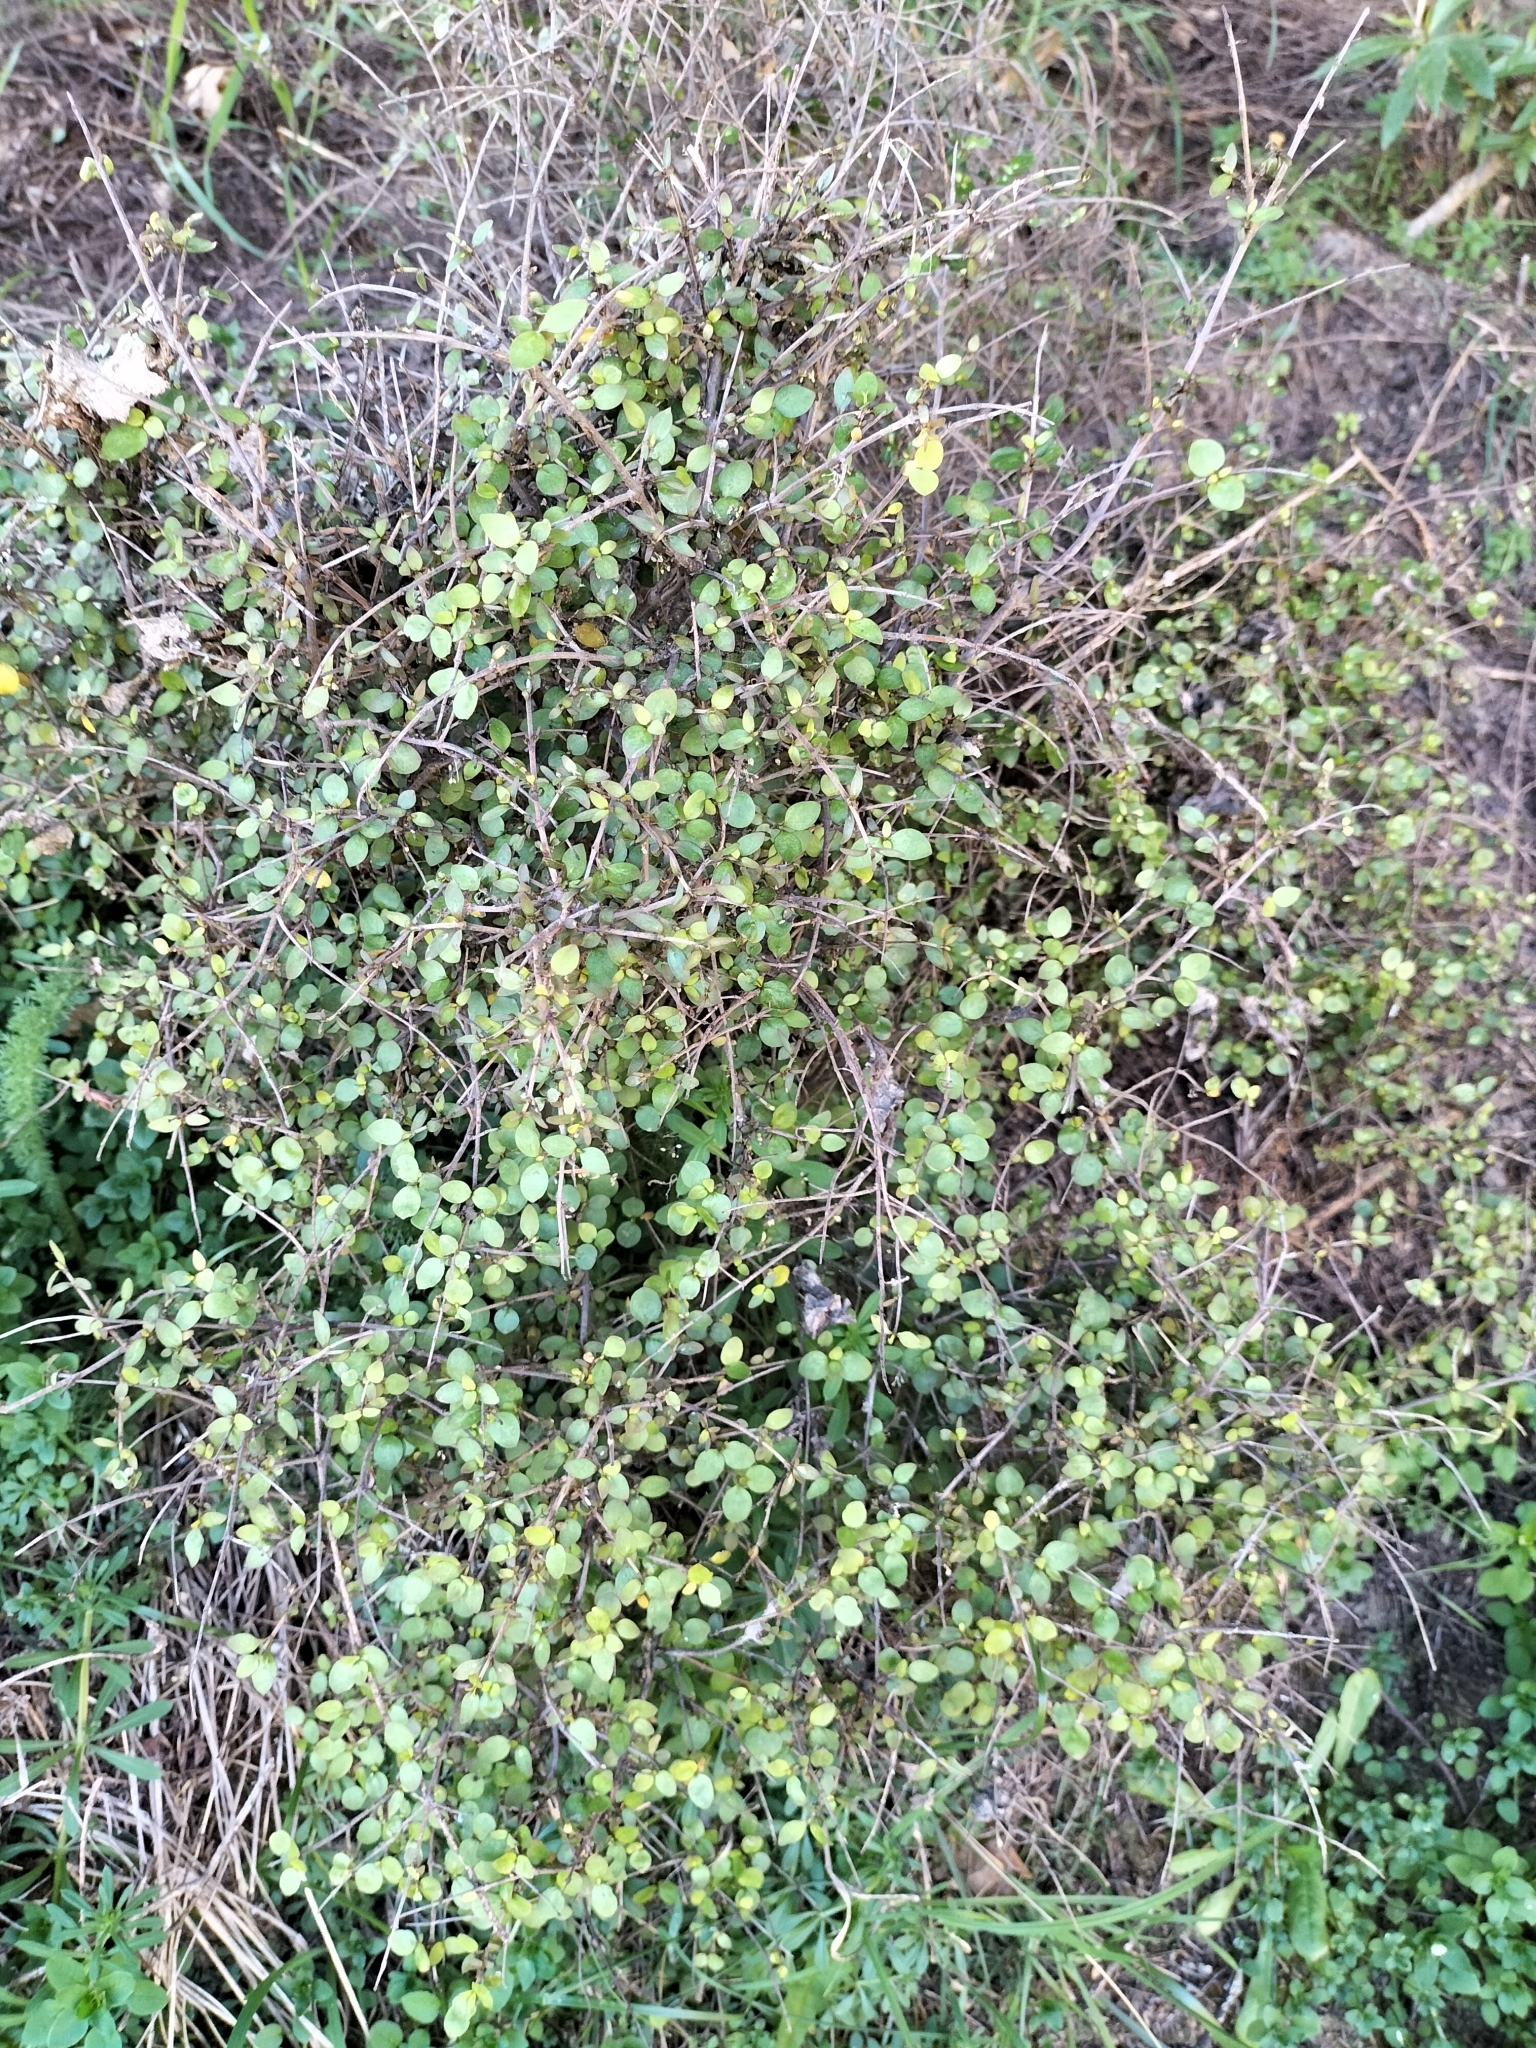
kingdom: Plantae
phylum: Tracheophyta
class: Magnoliopsida
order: Gentianales
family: Rubiaceae
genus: Coprosma
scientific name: Coprosma rhamnoides
